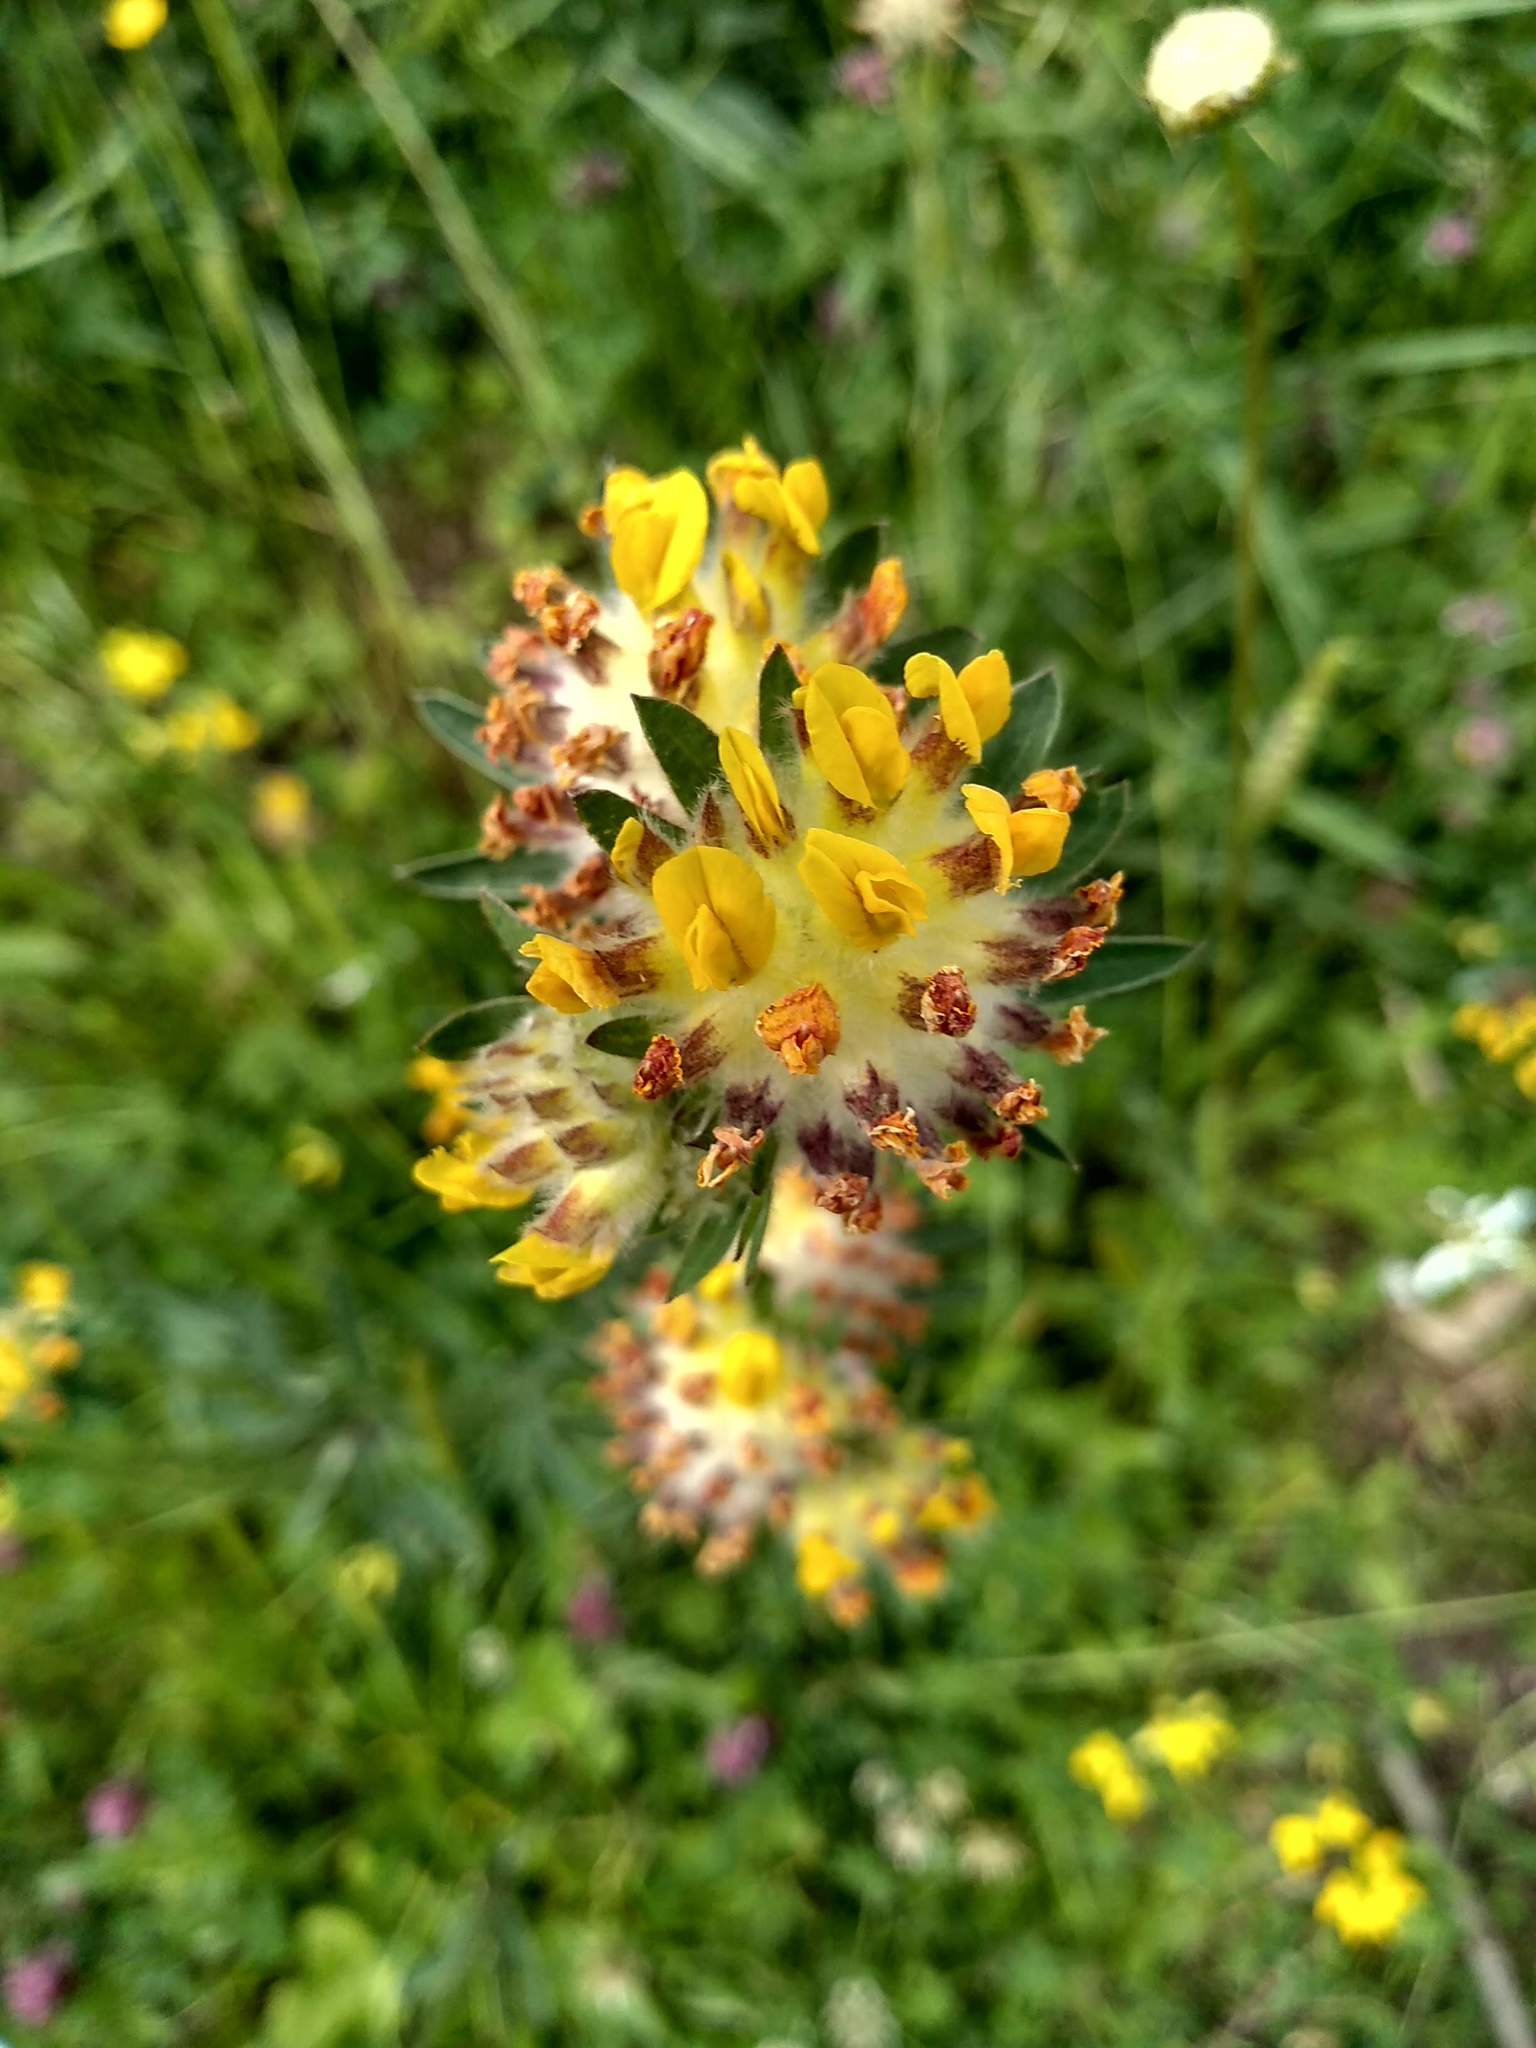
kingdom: Plantae
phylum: Tracheophyta
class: Magnoliopsida
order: Fabales
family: Fabaceae
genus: Anthyllis
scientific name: Anthyllis vulneraria
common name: Kidney vetch
